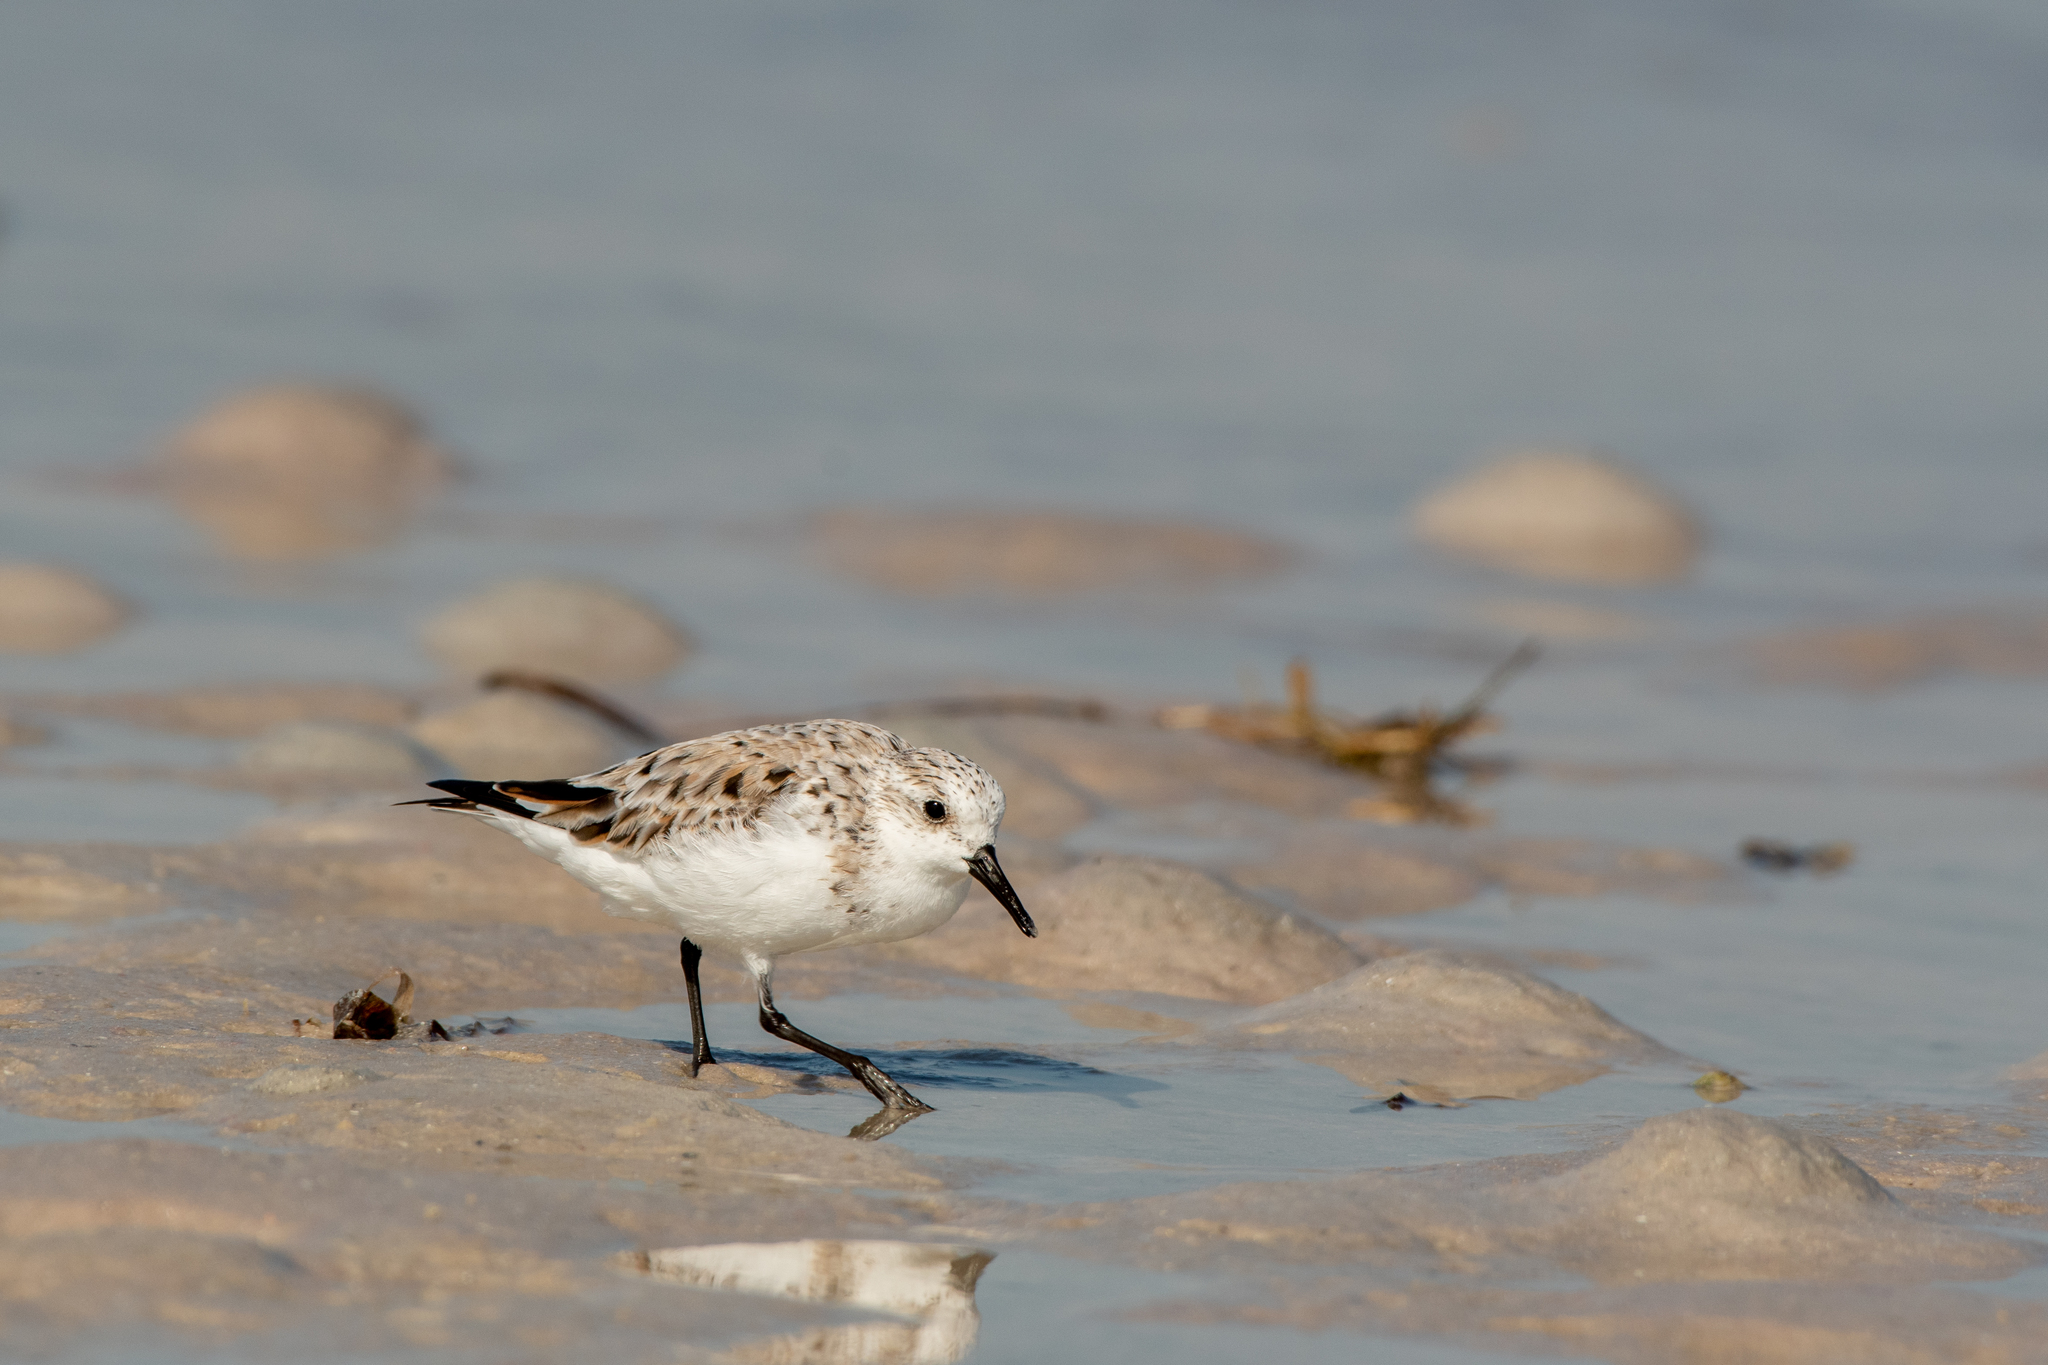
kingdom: Animalia
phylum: Chordata
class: Aves
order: Charadriiformes
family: Scolopacidae
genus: Calidris
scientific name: Calidris alba
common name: Sanderling
